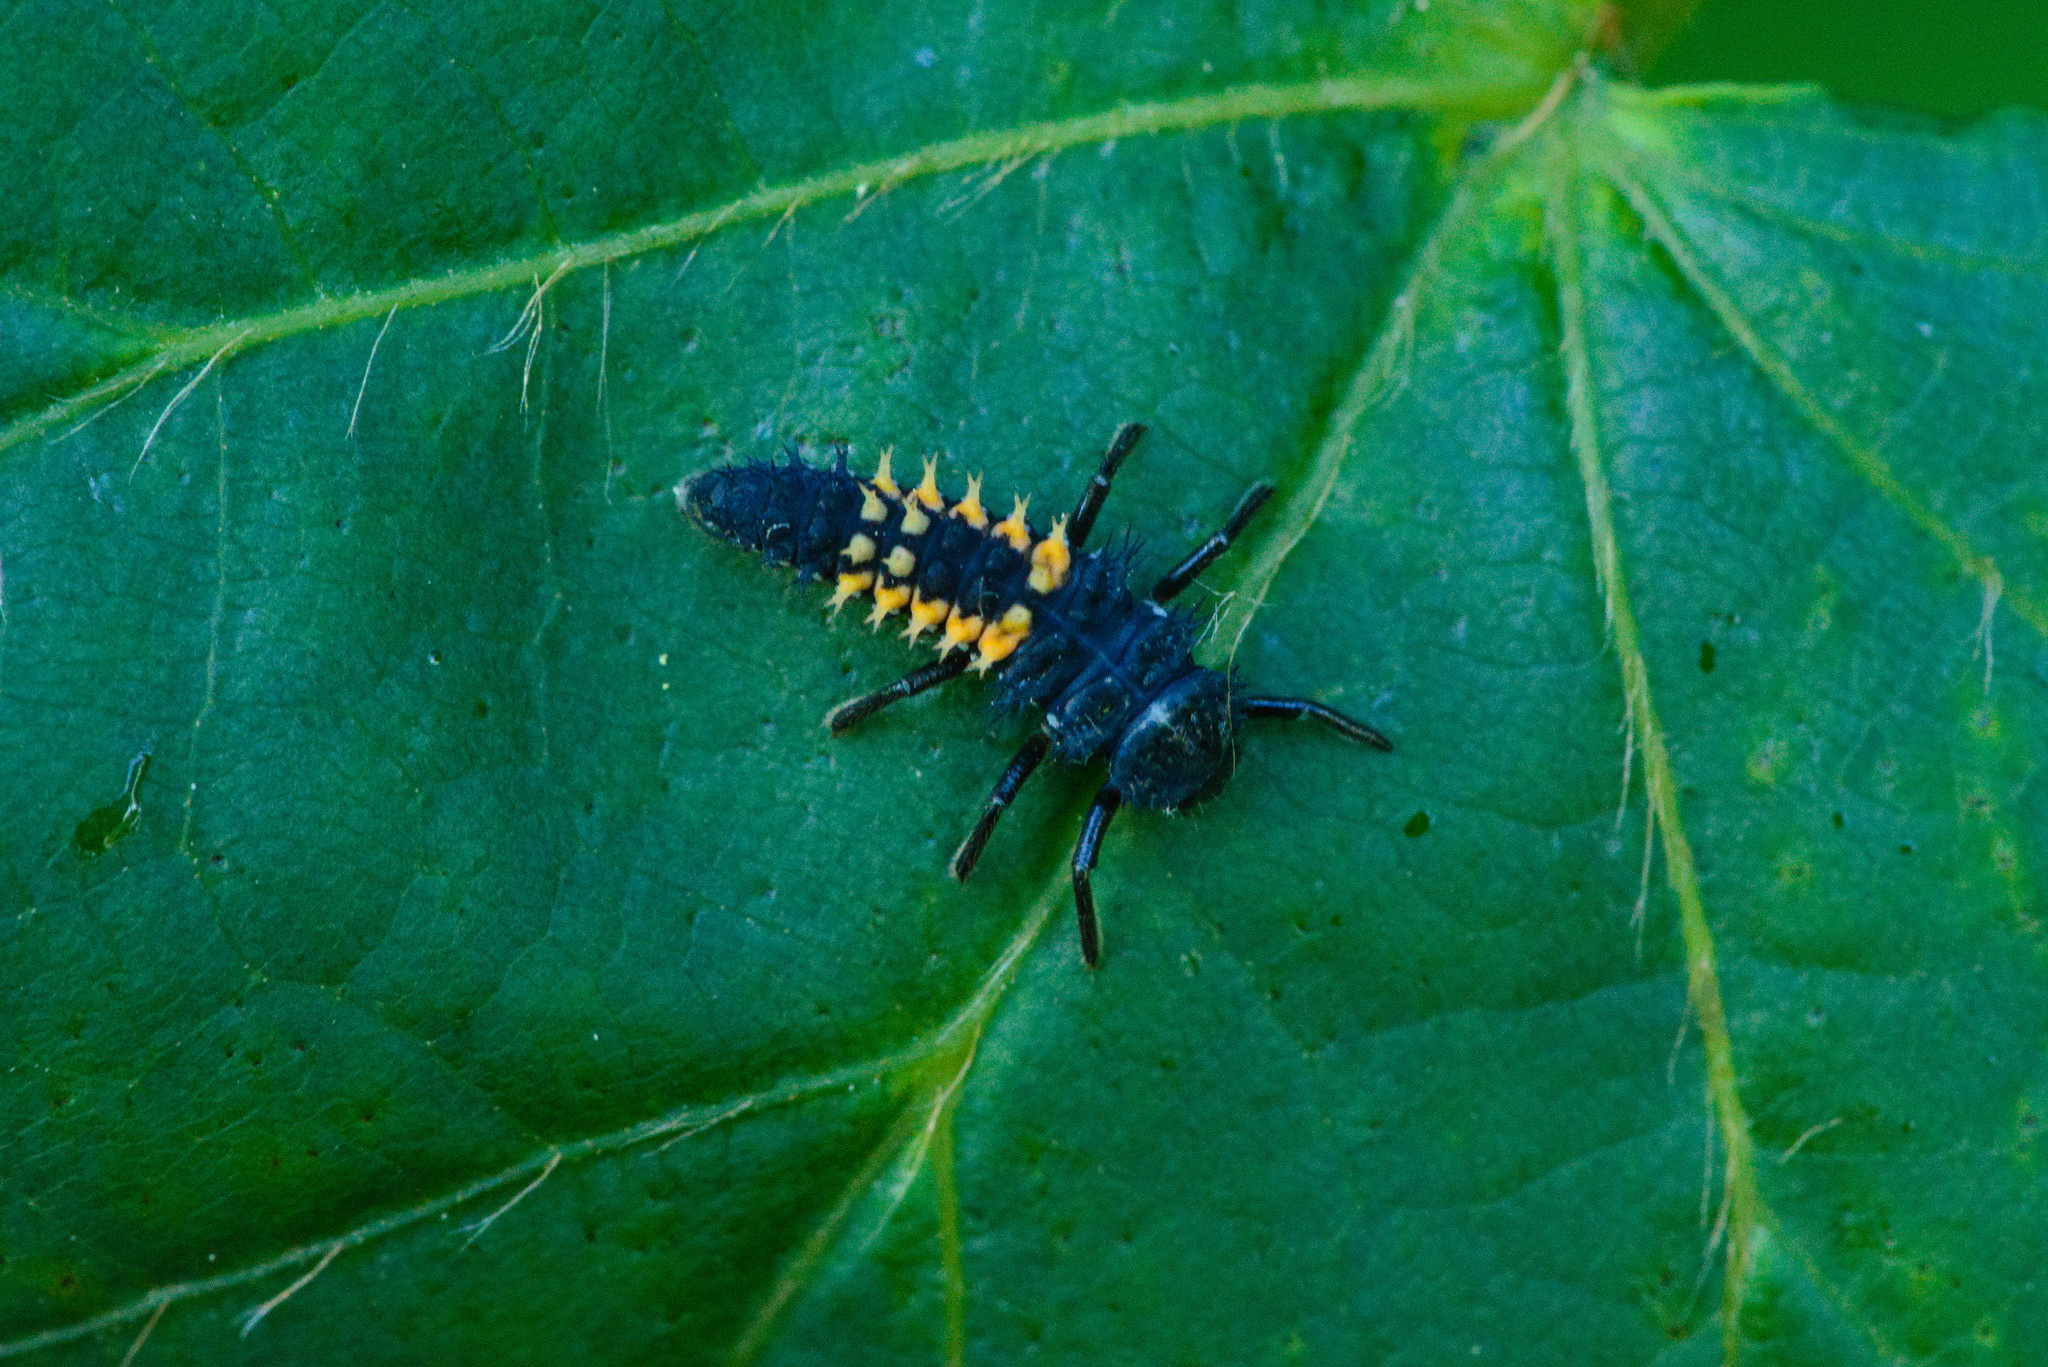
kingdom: Animalia
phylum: Arthropoda
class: Insecta
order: Coleoptera
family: Coccinellidae
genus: Harmonia
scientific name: Harmonia axyridis
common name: Harlequin ladybird
